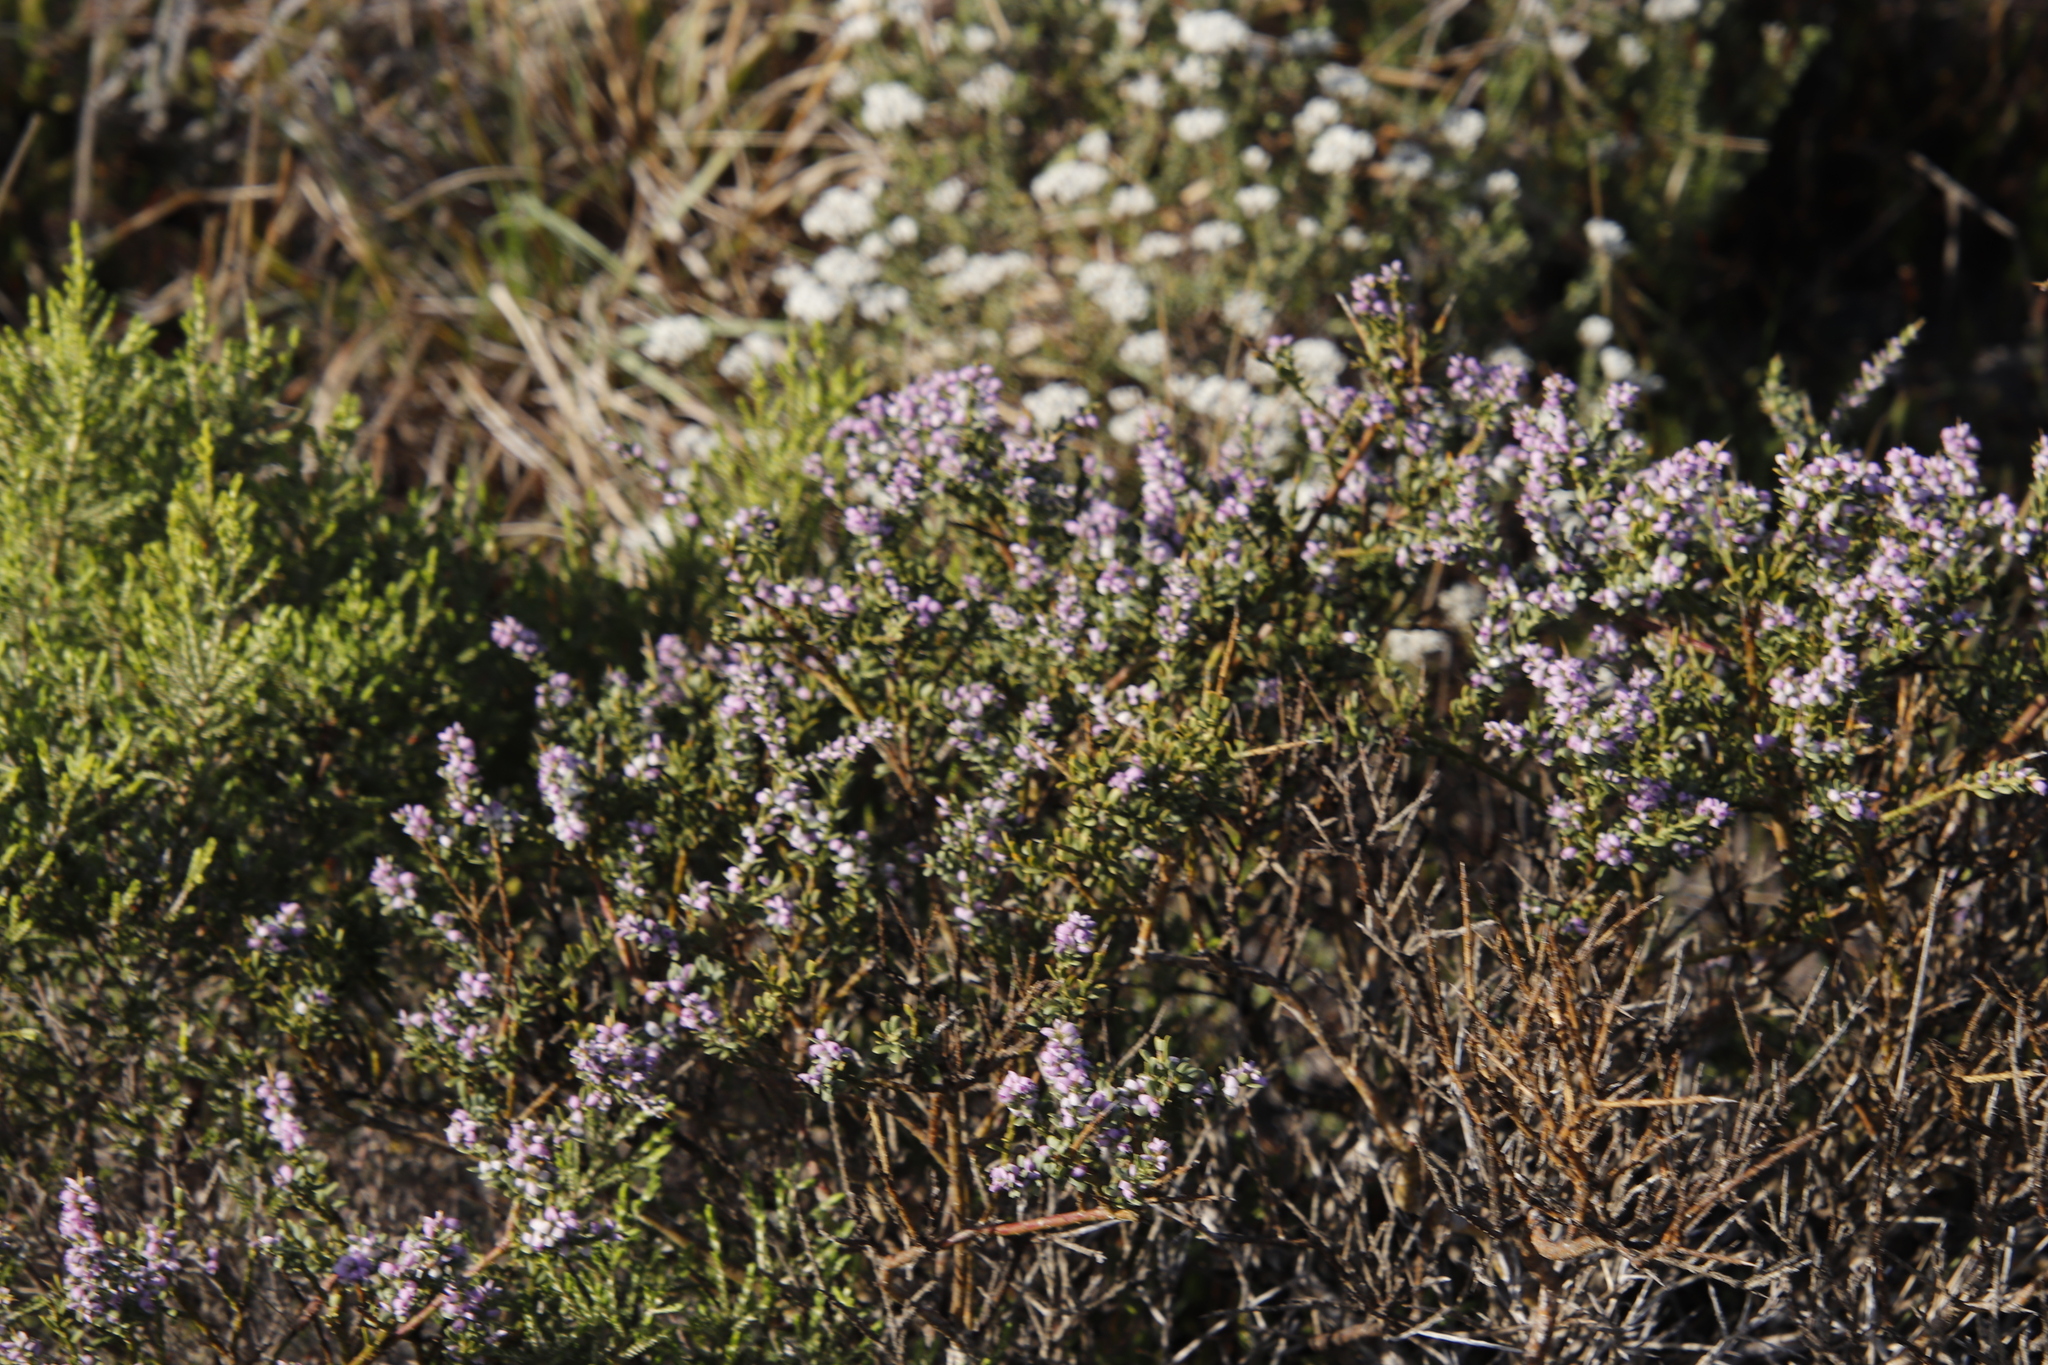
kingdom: Plantae
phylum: Tracheophyta
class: Magnoliopsida
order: Fabales
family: Polygalaceae
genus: Muraltia
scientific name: Muraltia spinosa
